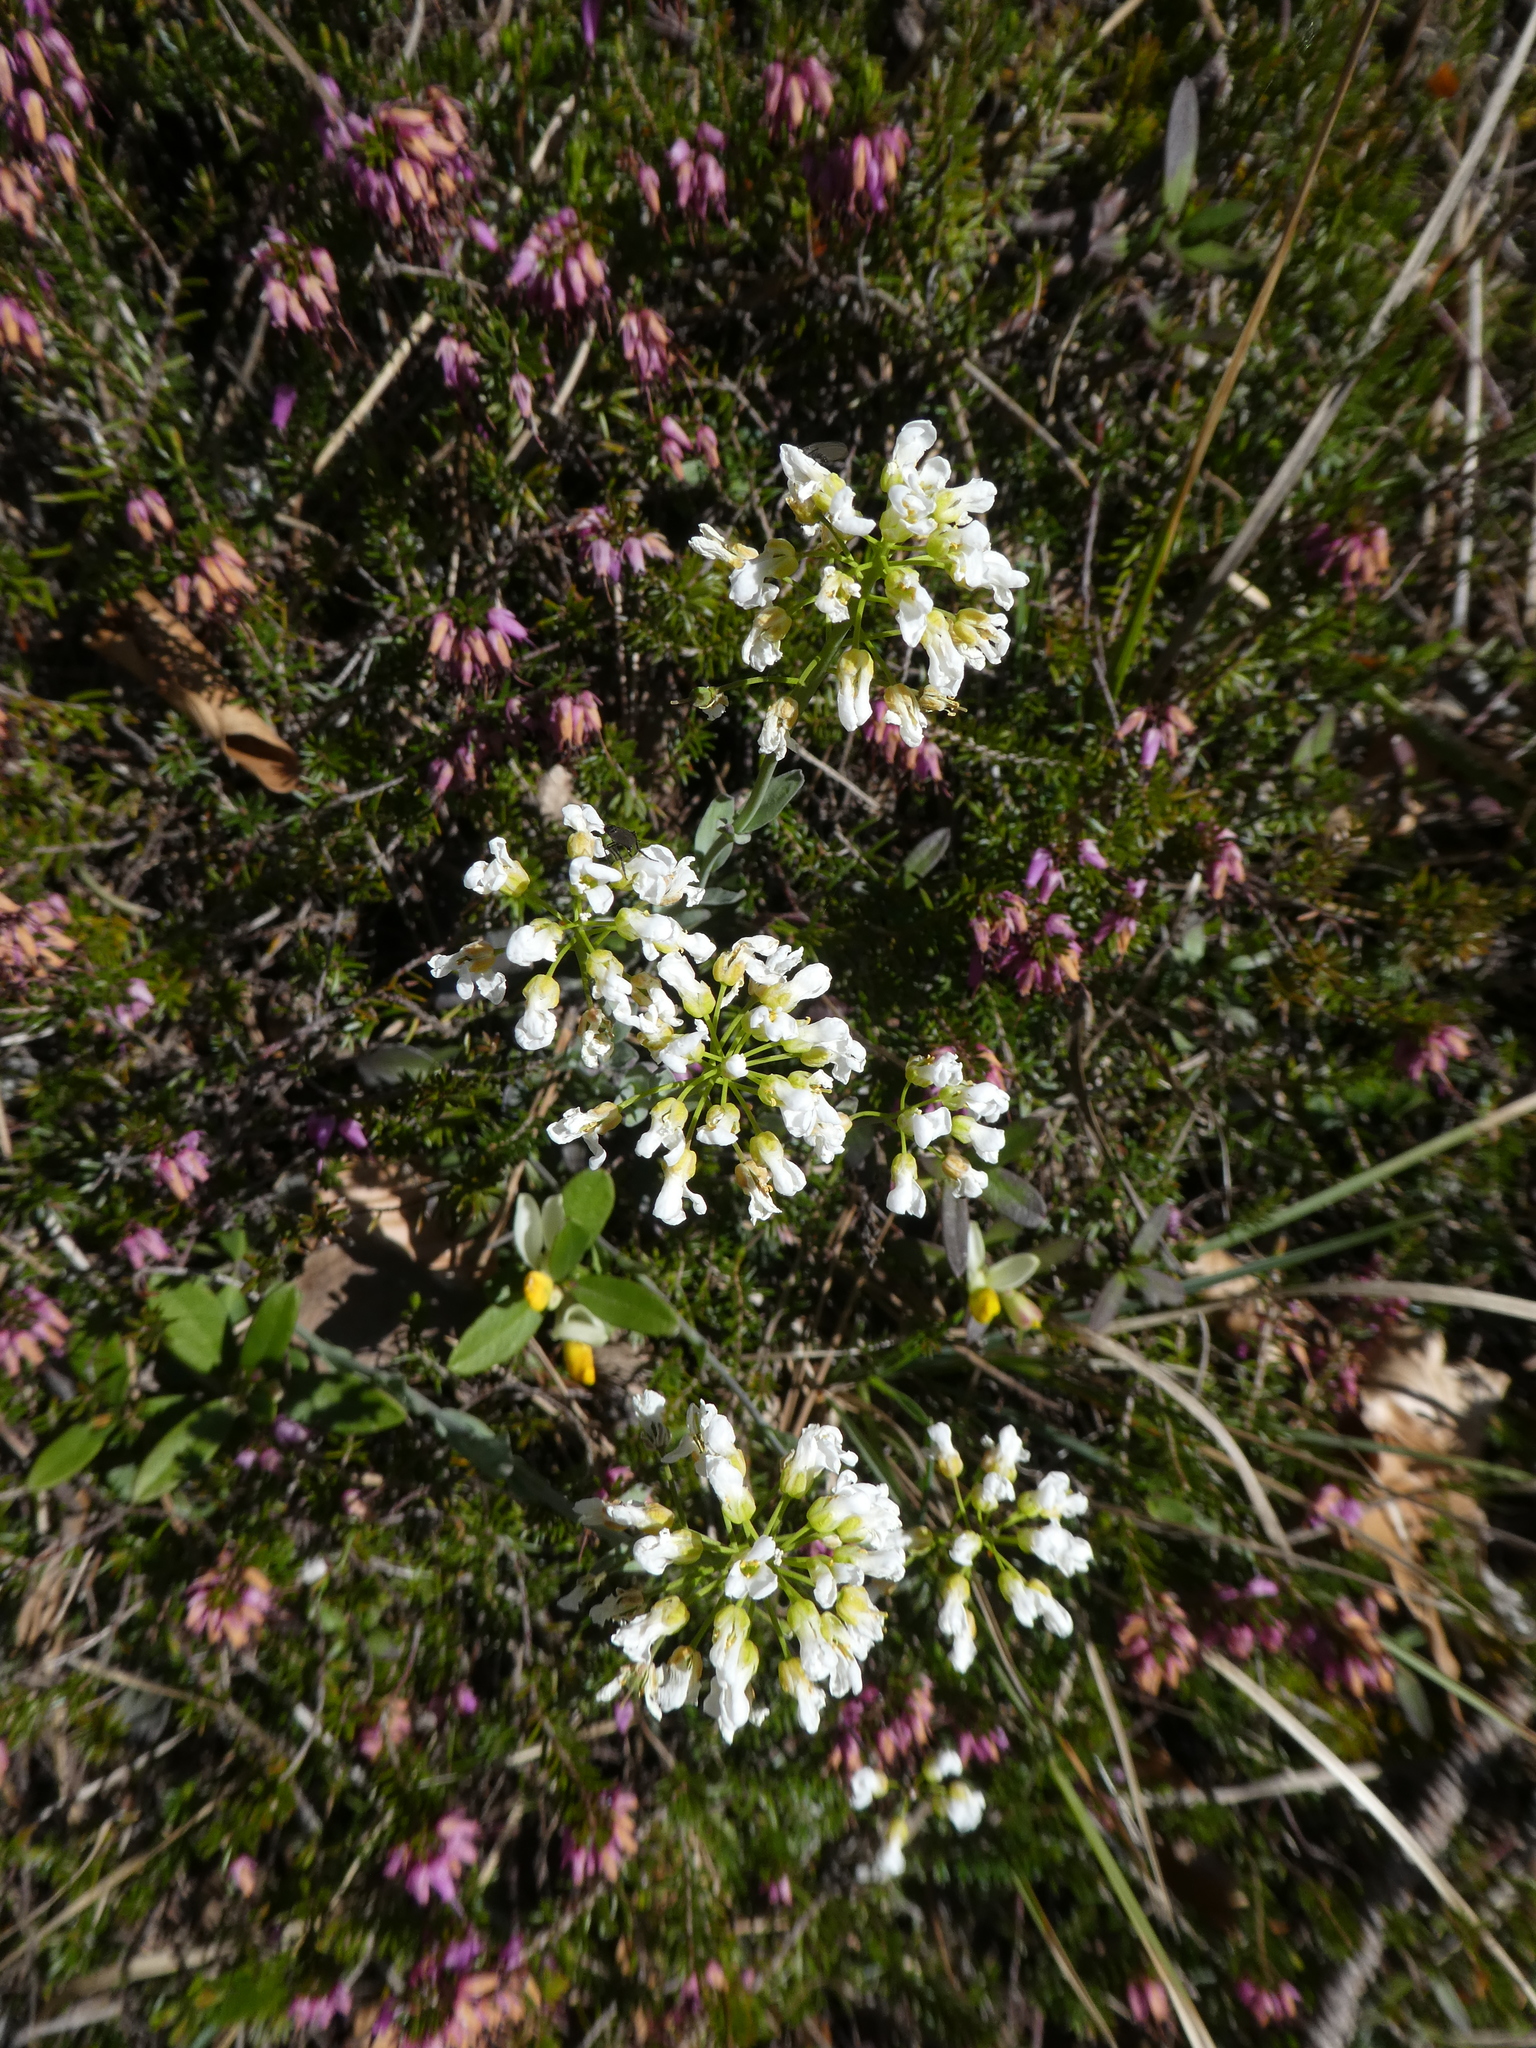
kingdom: Plantae
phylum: Tracheophyta
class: Magnoliopsida
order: Brassicales
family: Brassicaceae
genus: Noccaea
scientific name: Noccaea montana
